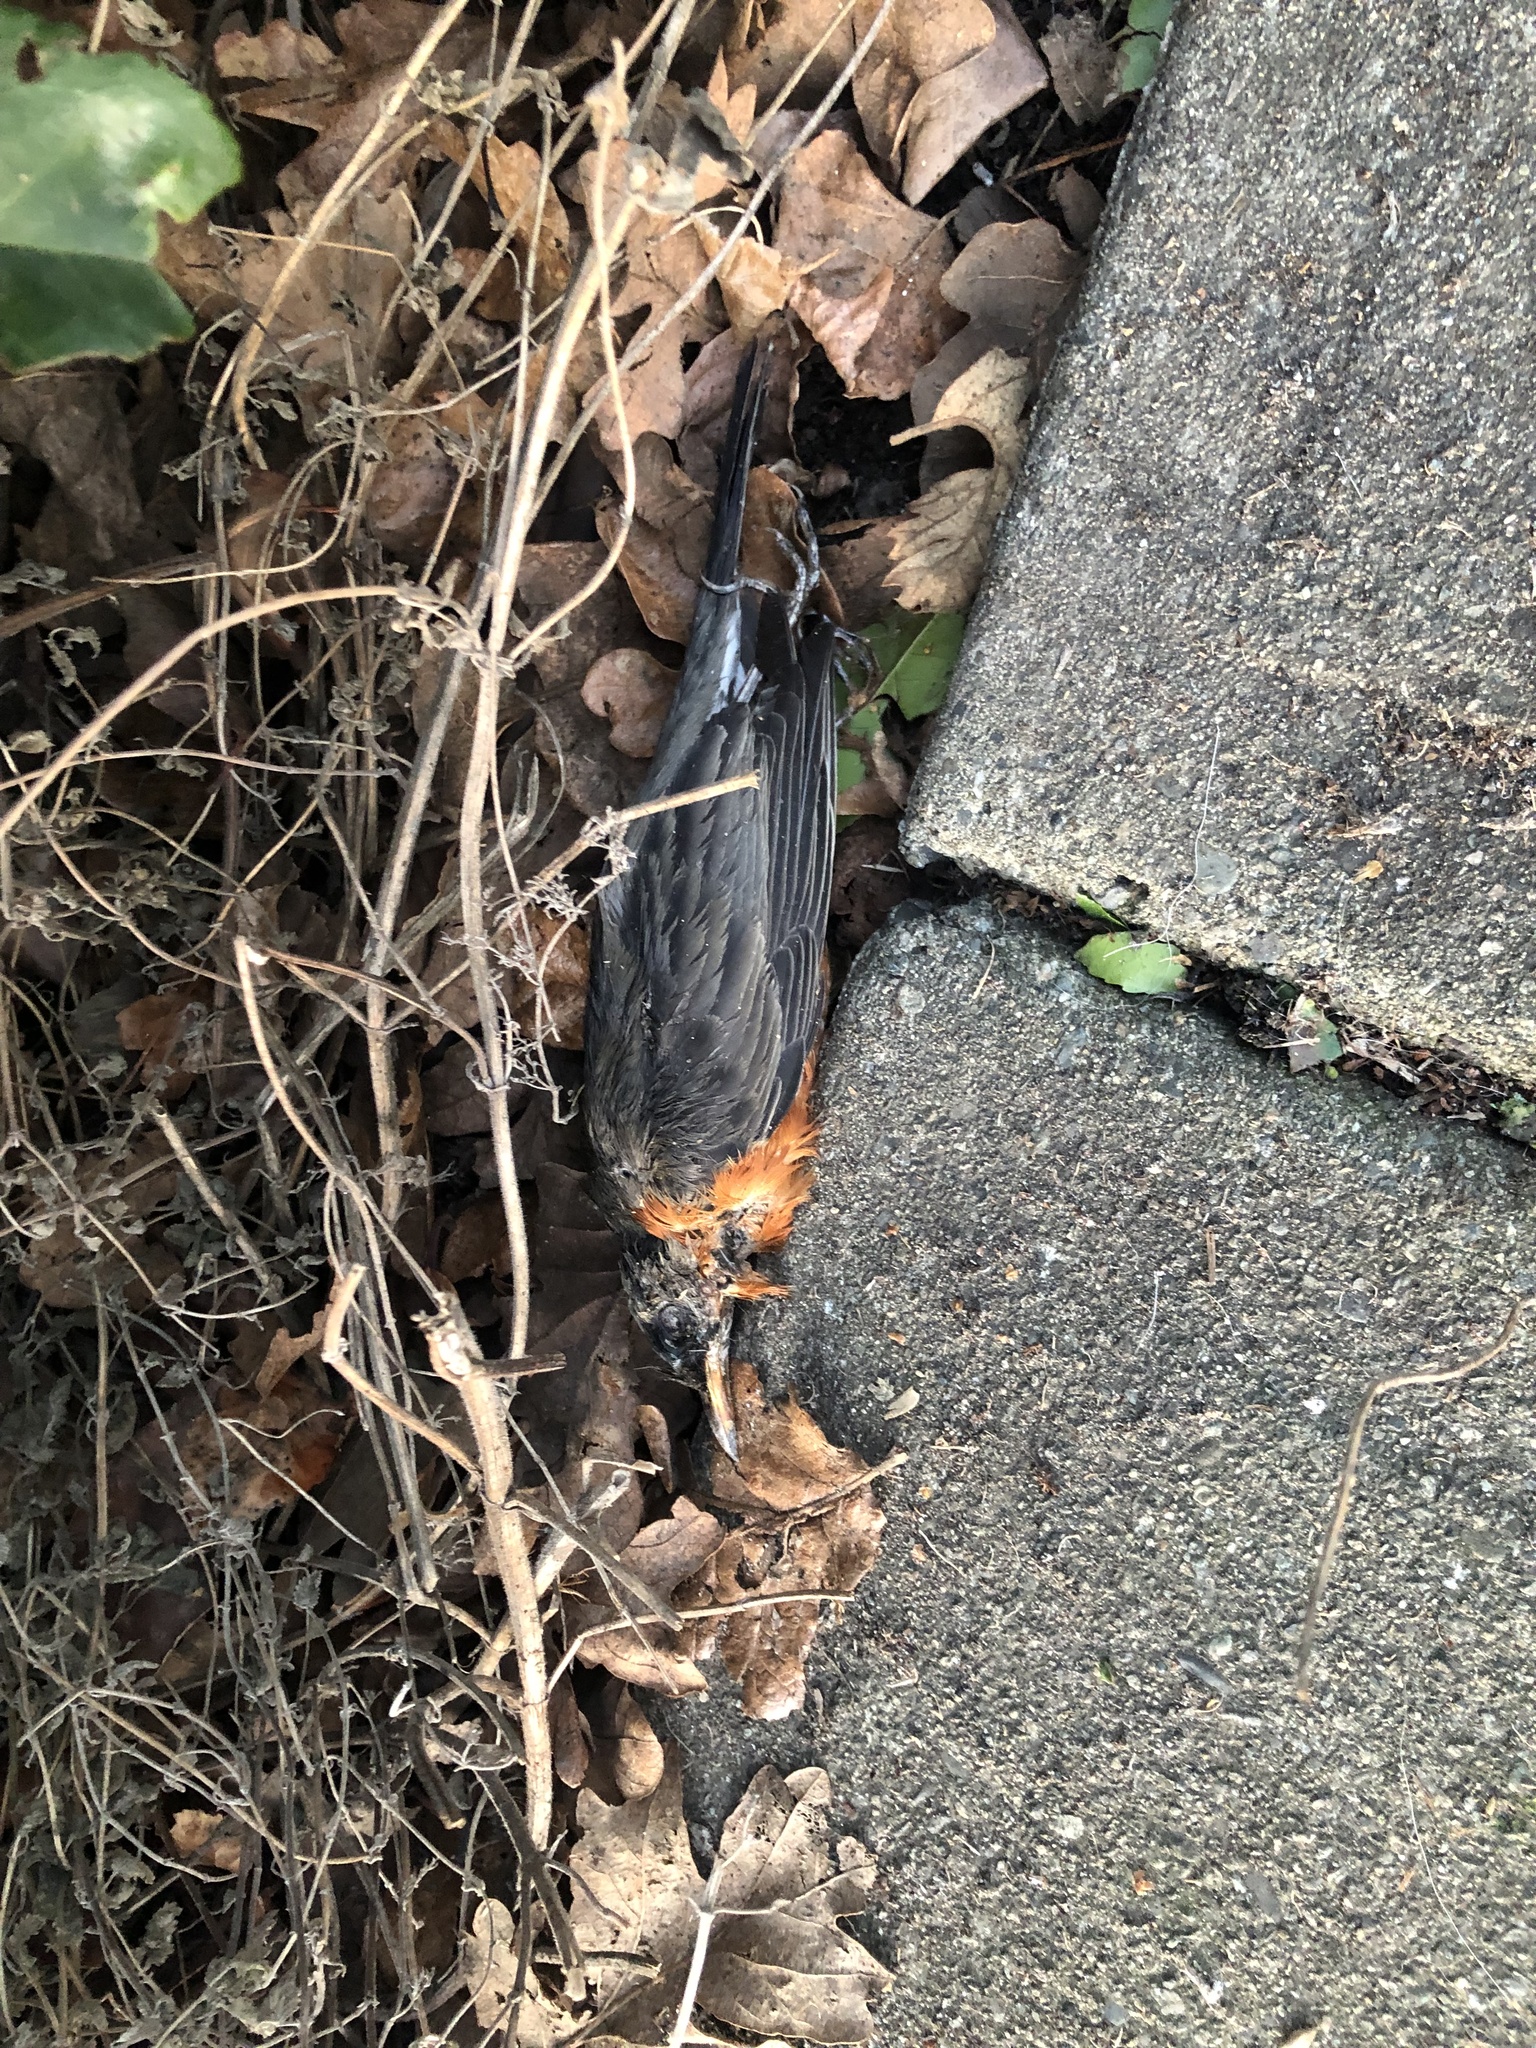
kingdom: Animalia
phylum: Chordata
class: Aves
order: Passeriformes
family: Turdidae
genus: Turdus
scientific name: Turdus migratorius
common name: American robin
